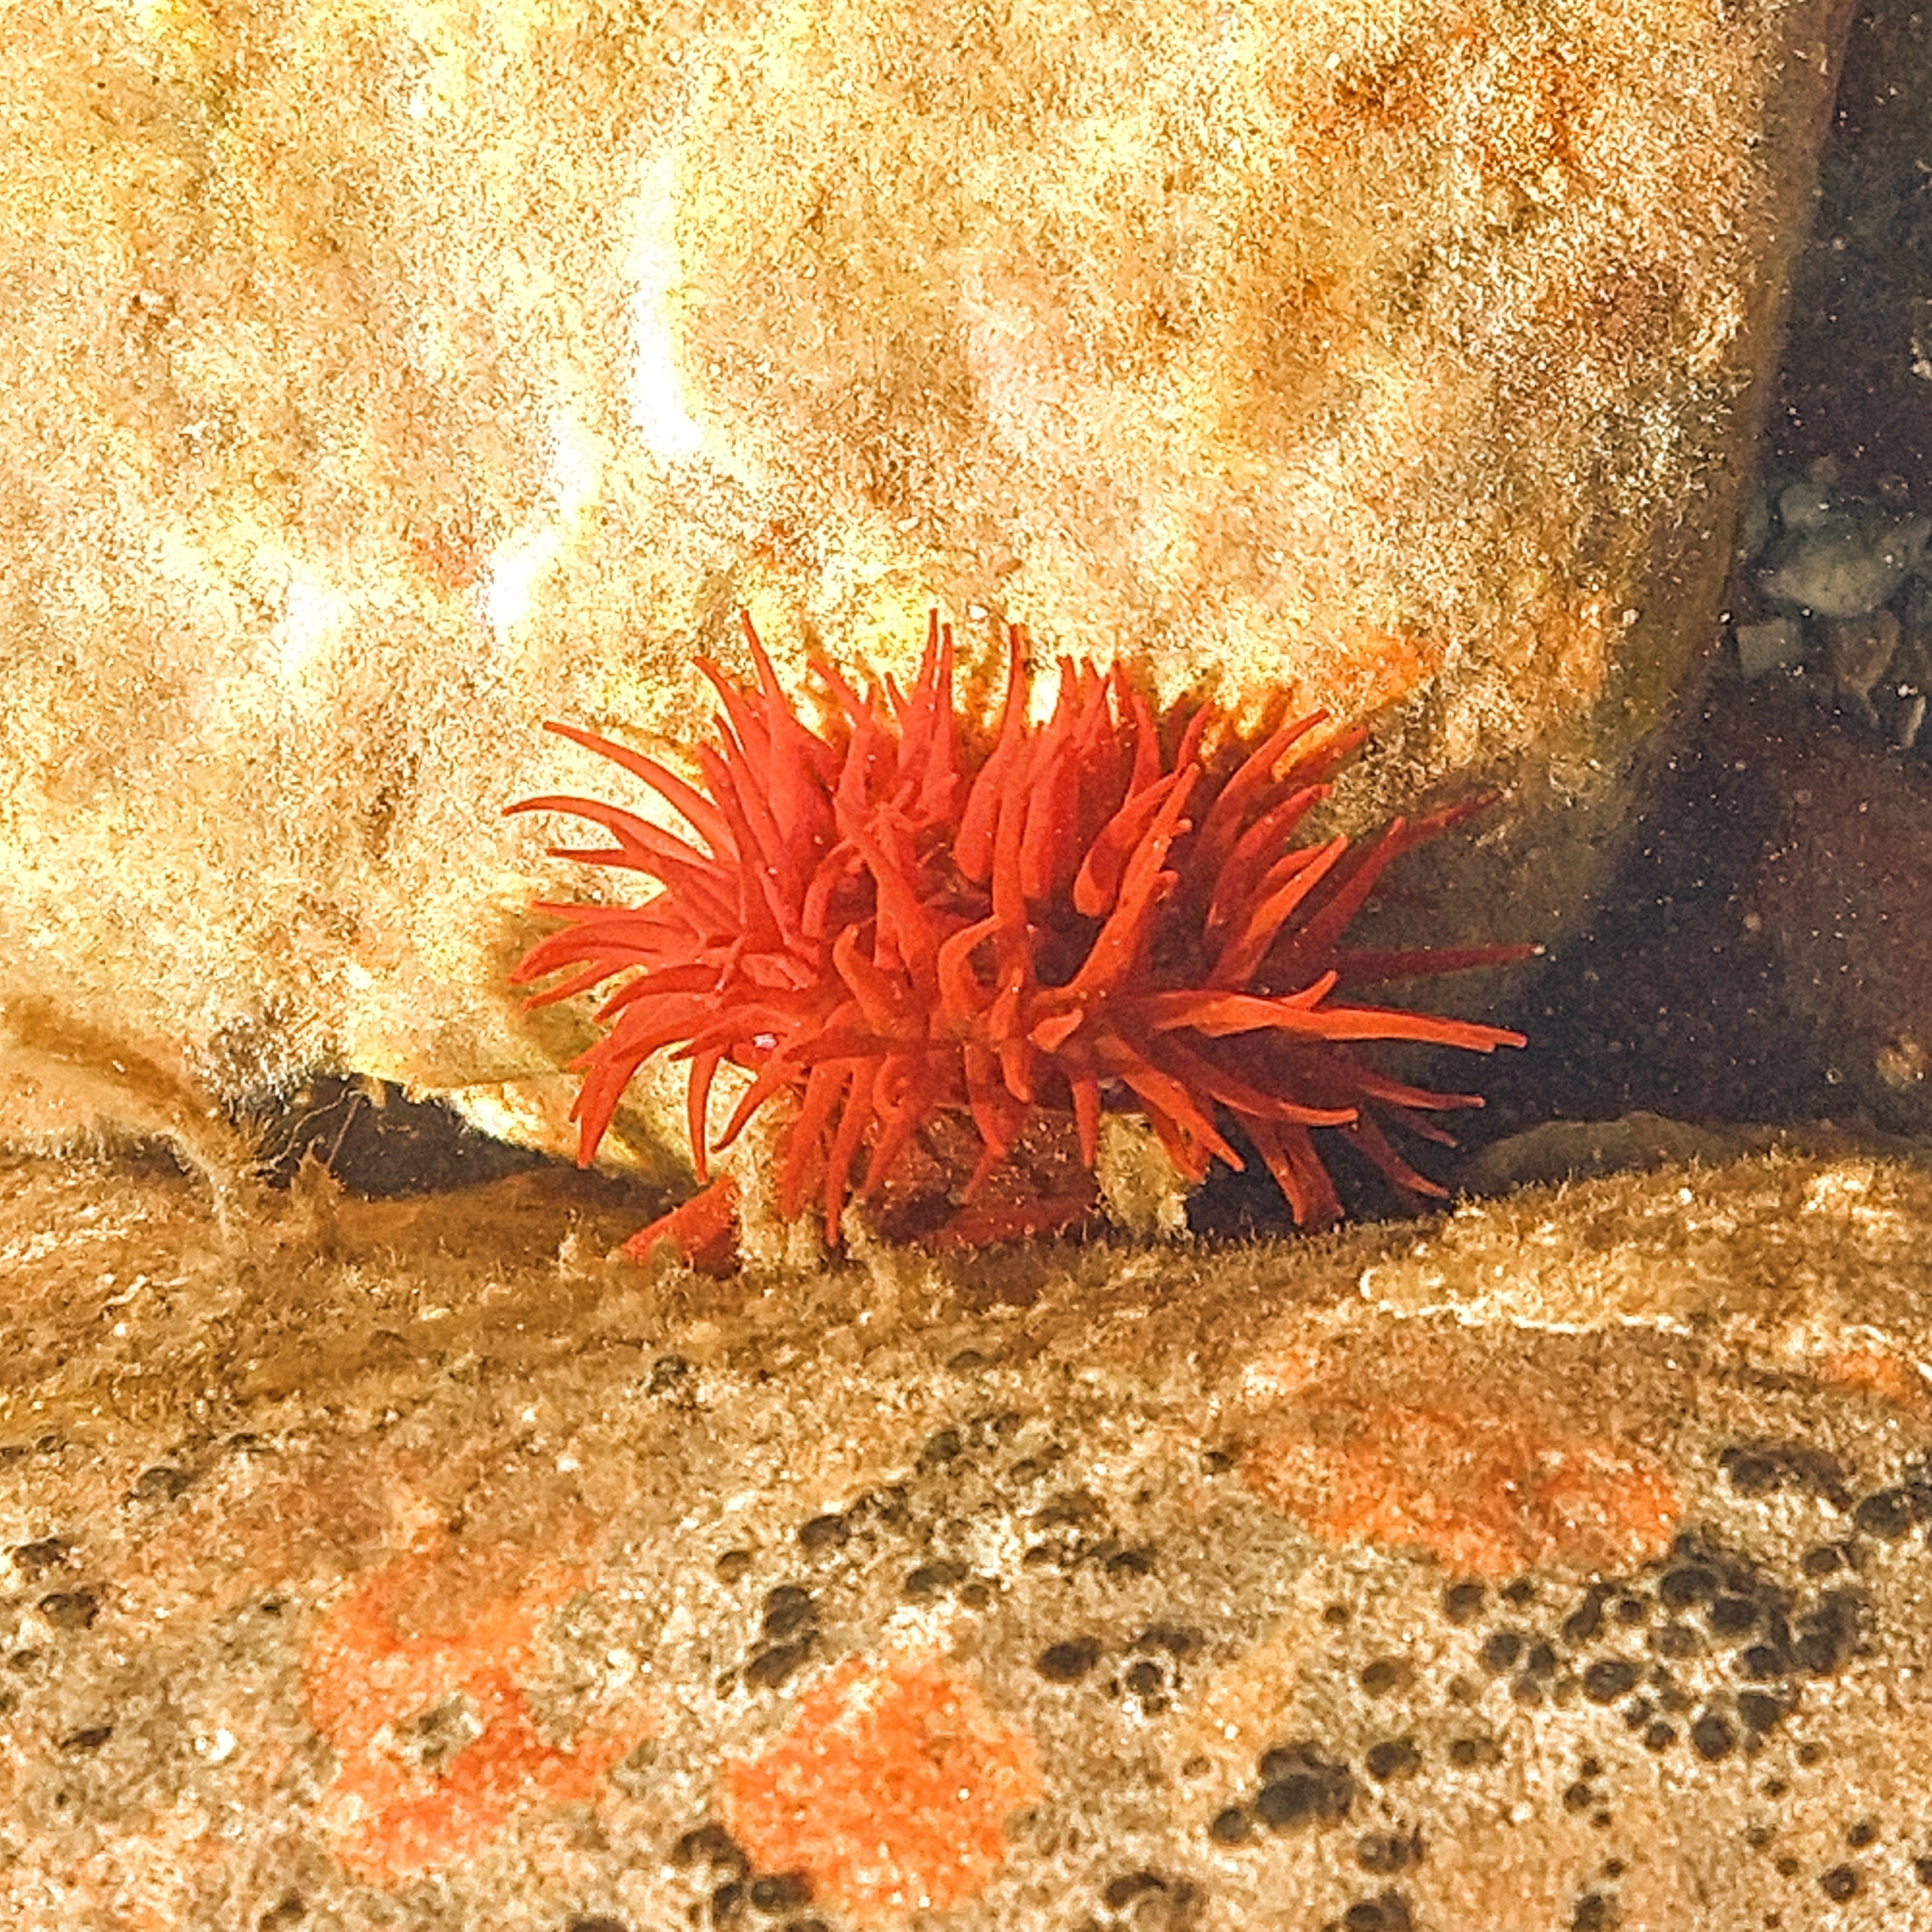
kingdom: Animalia
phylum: Cnidaria
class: Anthozoa
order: Actiniaria
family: Actiniidae
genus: Actinia
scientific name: Actinia equina
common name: Beadlet anemone
